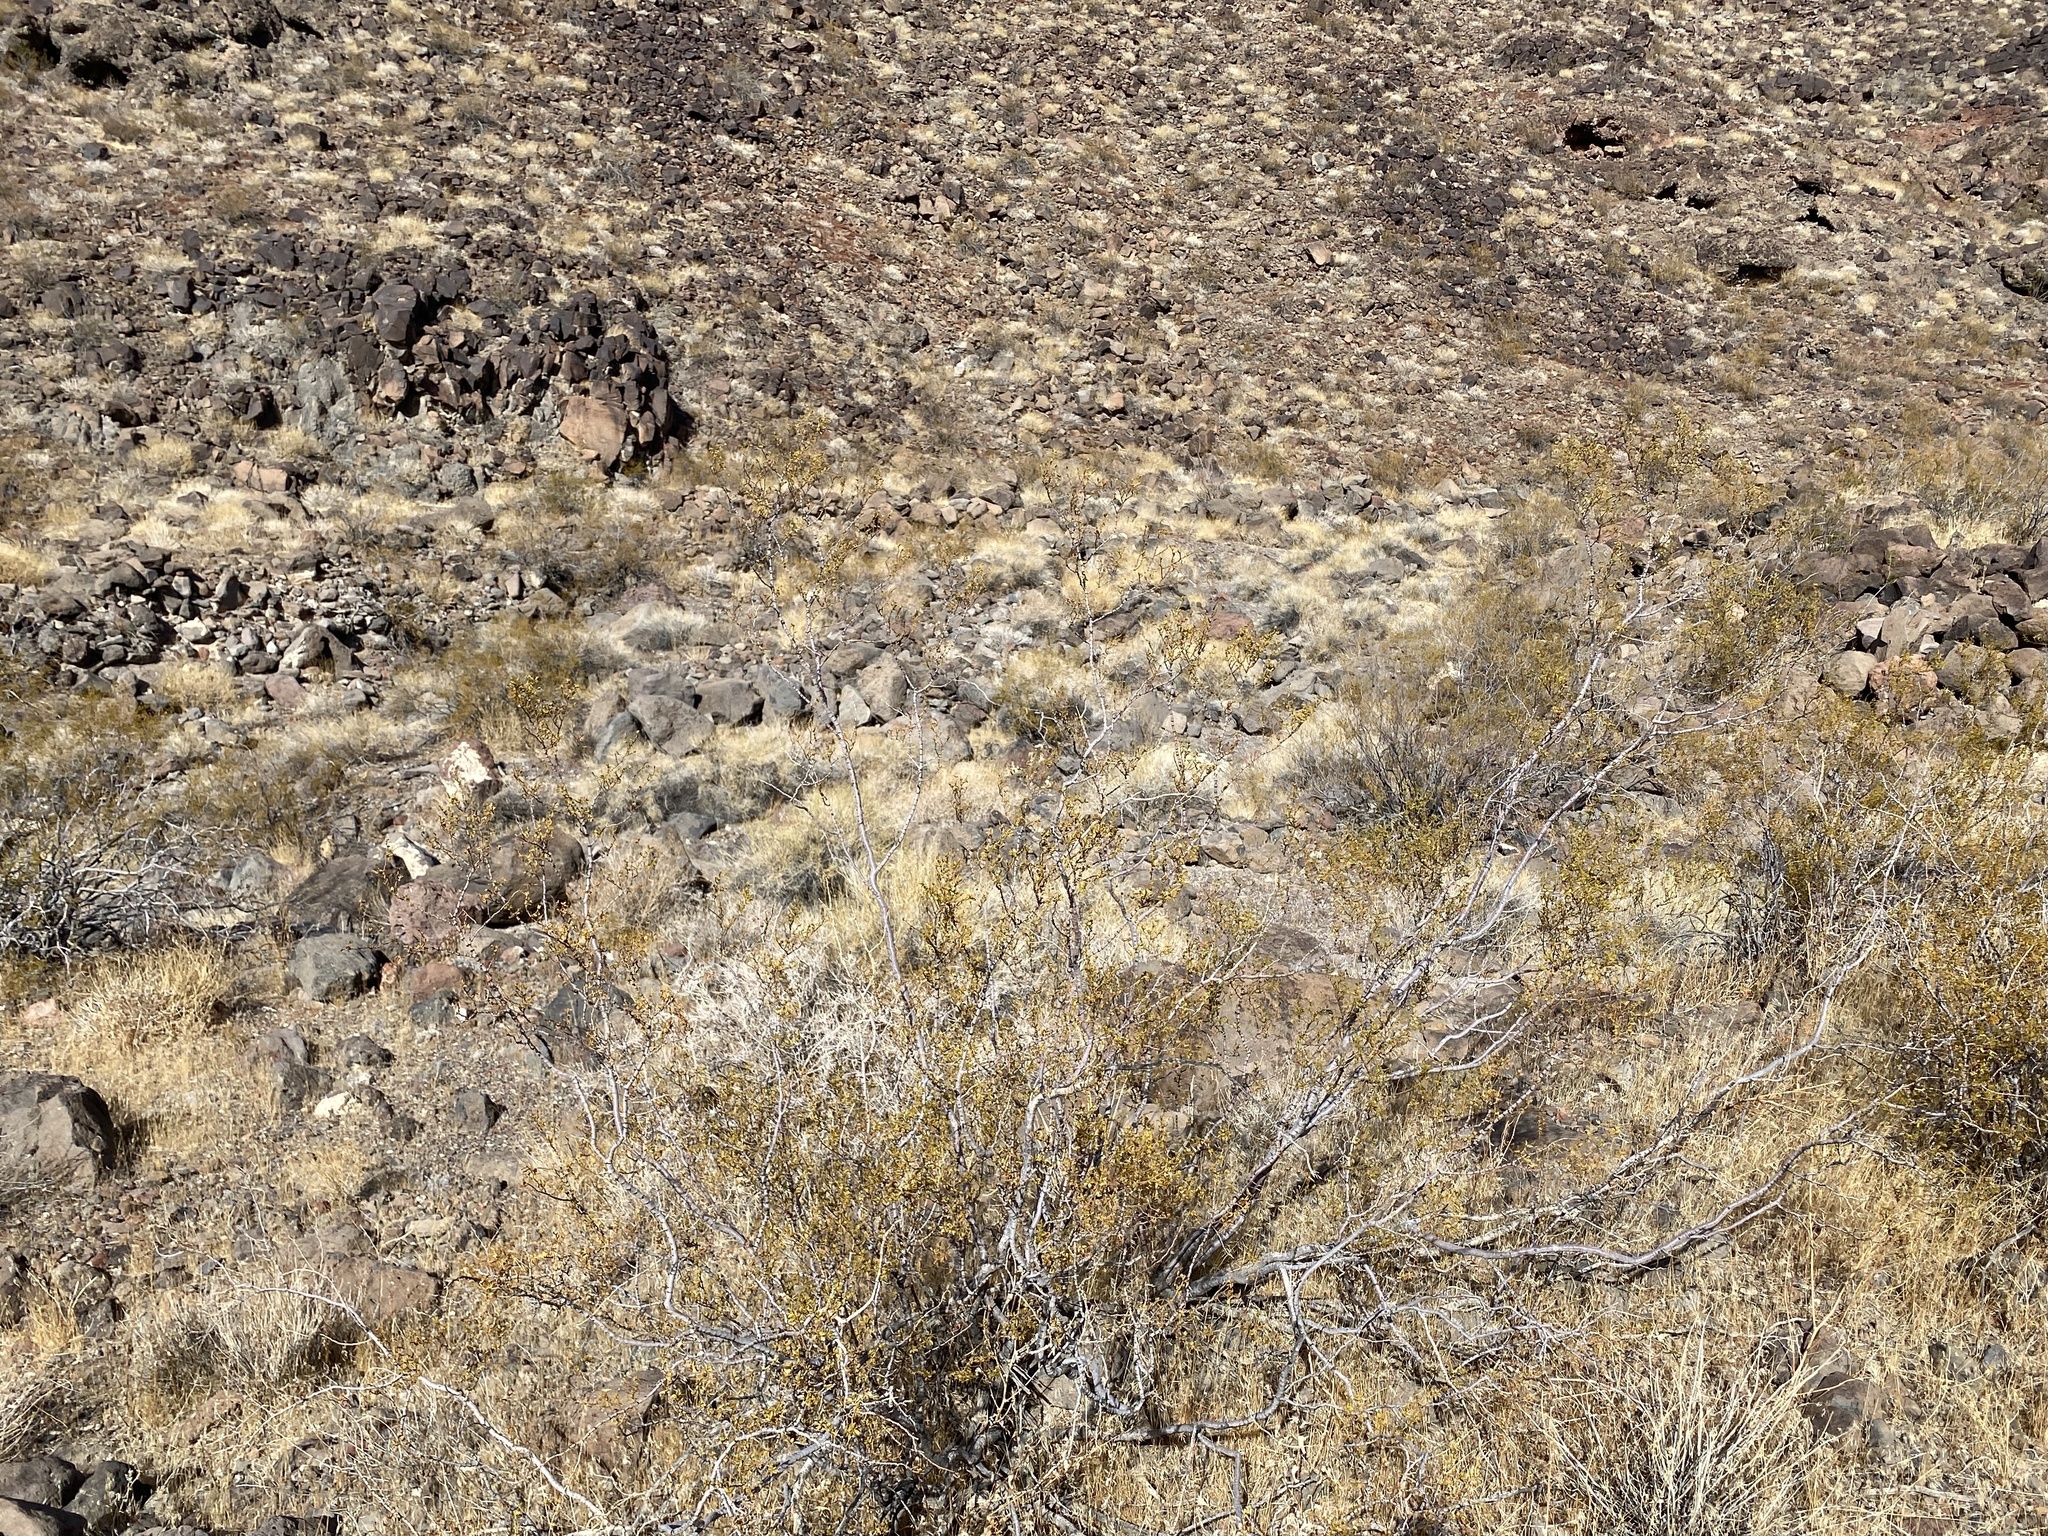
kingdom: Plantae
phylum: Tracheophyta
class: Magnoliopsida
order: Zygophyllales
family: Zygophyllaceae
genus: Larrea
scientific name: Larrea tridentata
